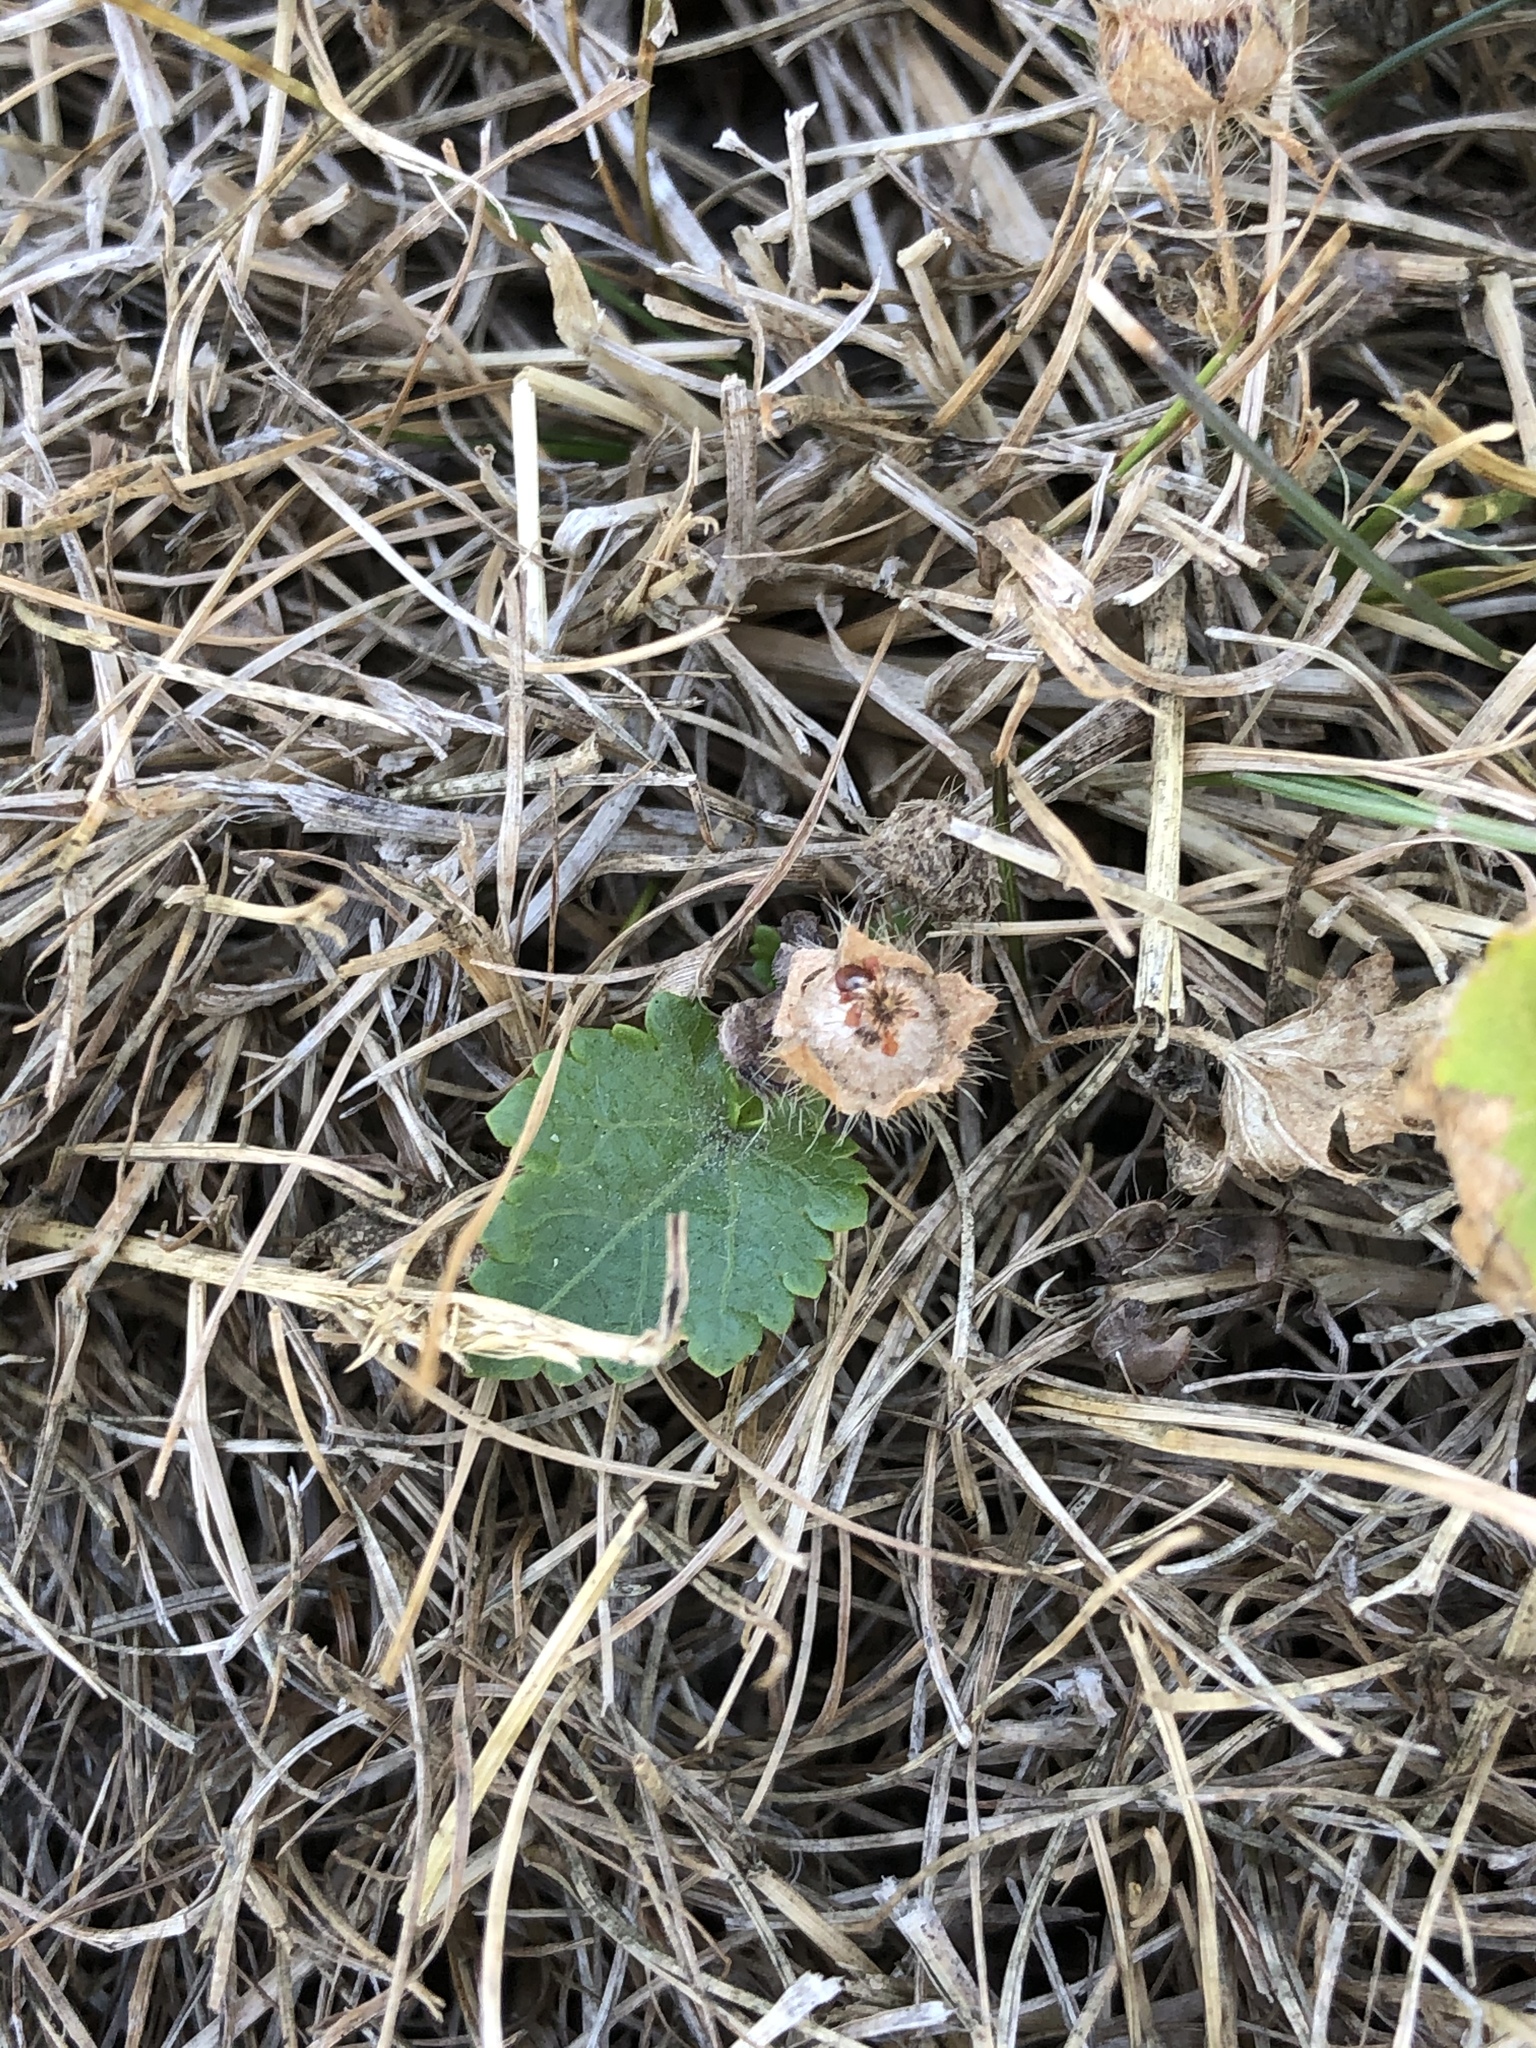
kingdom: Plantae
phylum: Tracheophyta
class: Magnoliopsida
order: Malvales
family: Malvaceae
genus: Modiola
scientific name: Modiola caroliniana
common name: Carolina bristlemallow
